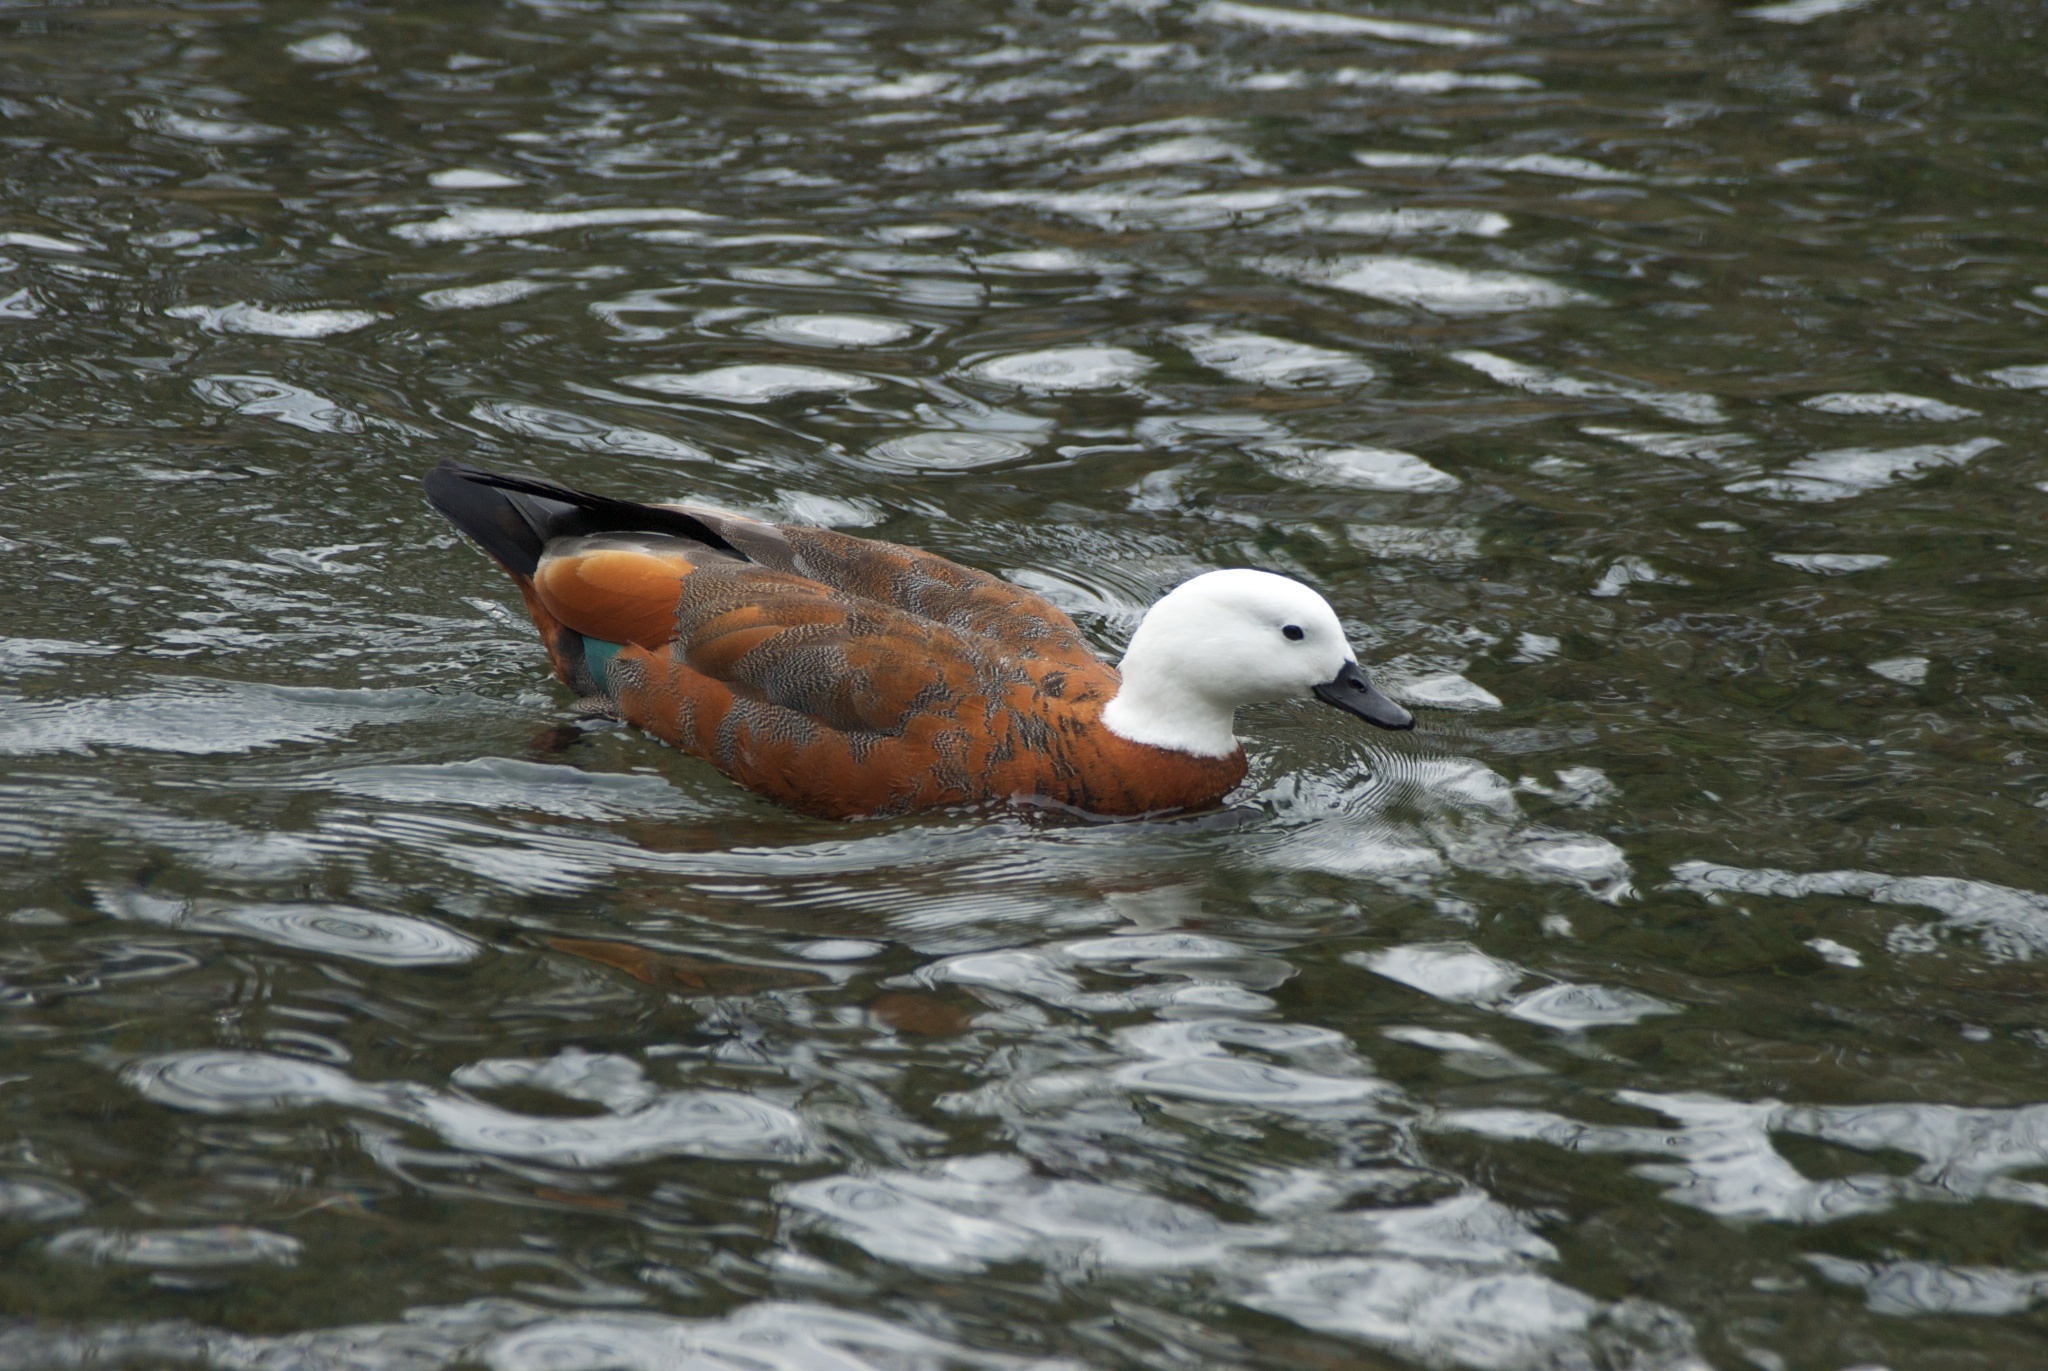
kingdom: Animalia
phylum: Chordata
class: Aves
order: Anseriformes
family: Anatidae
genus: Tadorna
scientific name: Tadorna variegata
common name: Paradise shelduck
